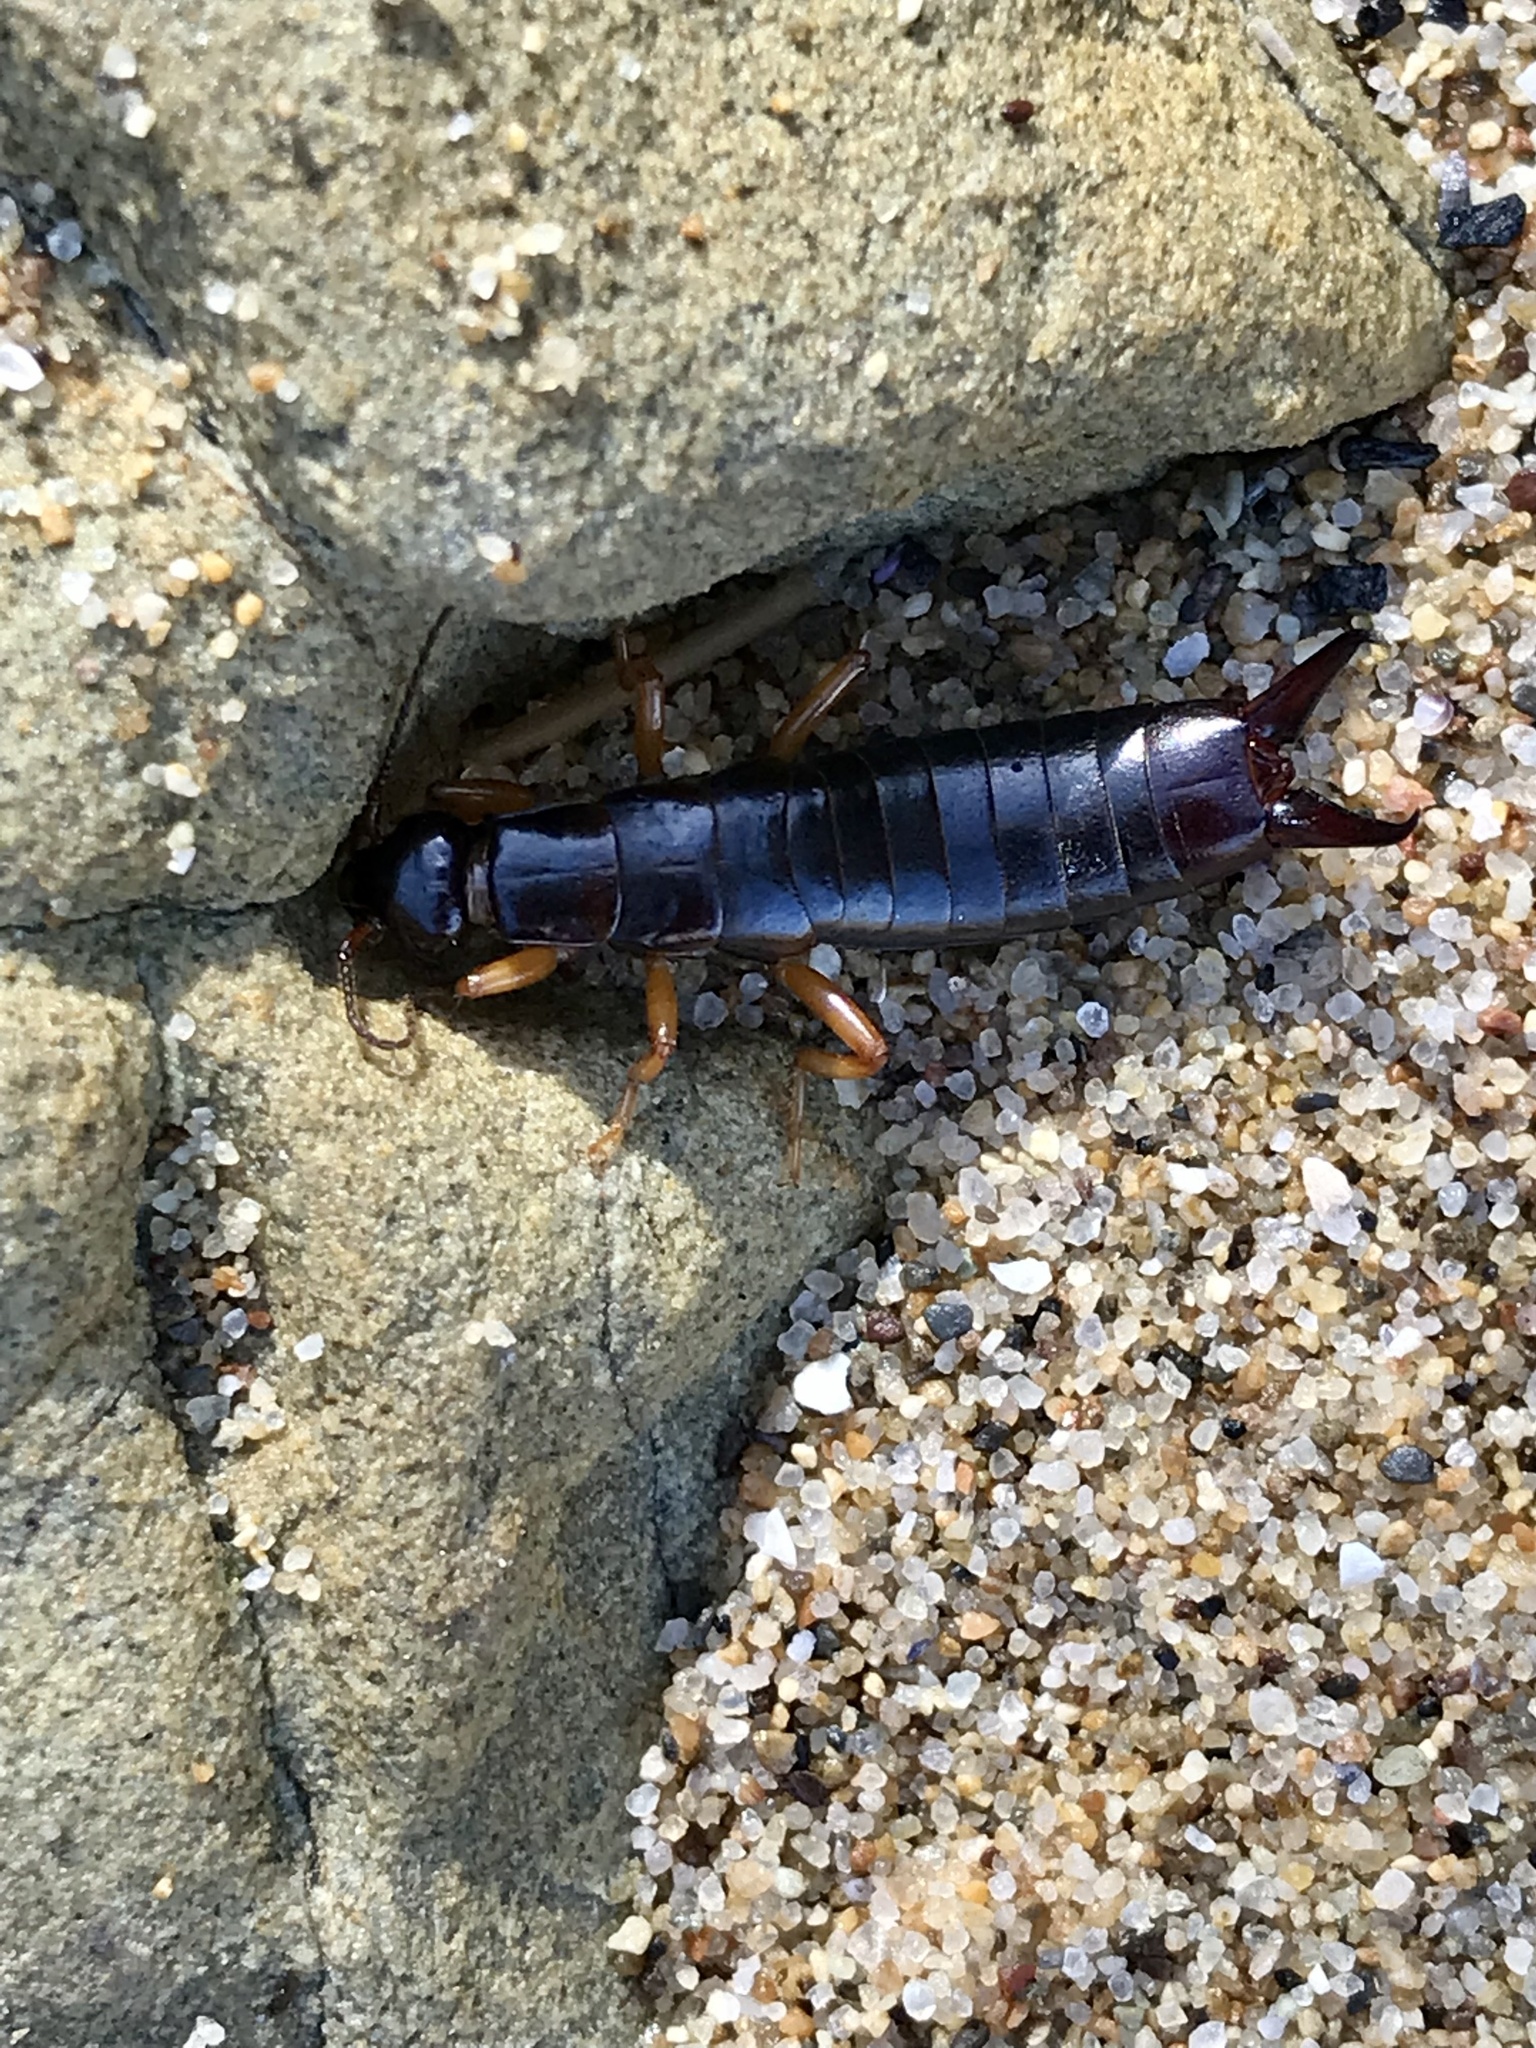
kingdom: Animalia
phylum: Arthropoda
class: Insecta
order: Dermaptera
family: Anisolabididae
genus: Anisolabis
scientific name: Anisolabis maritima
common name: Maritime earwig
